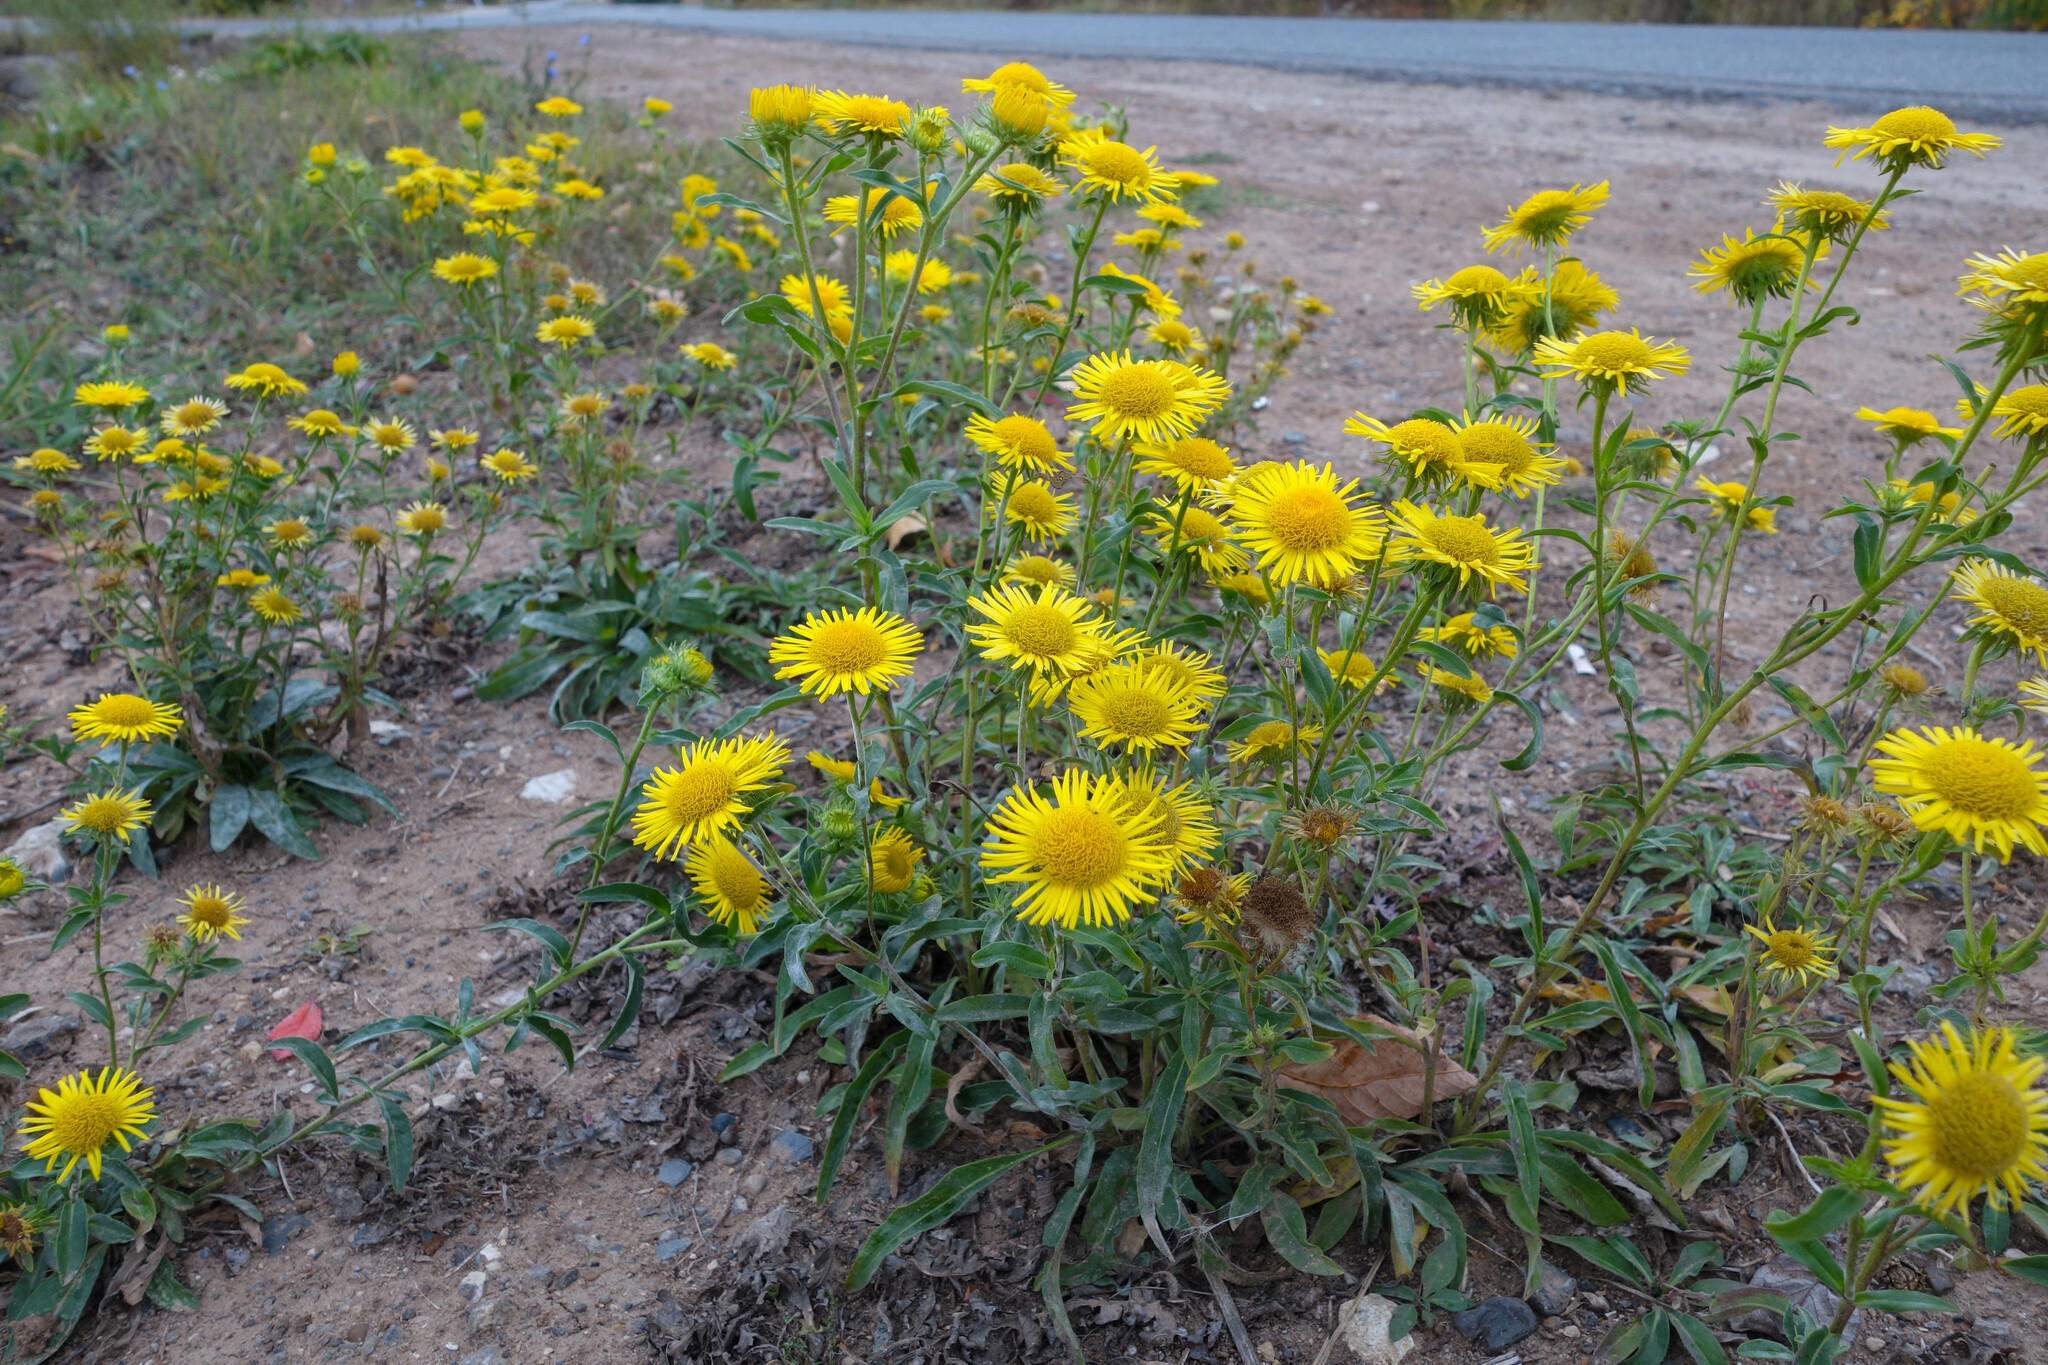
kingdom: Plantae
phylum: Tracheophyta
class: Magnoliopsida
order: Asterales
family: Asteraceae
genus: Pentanema
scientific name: Pentanema britannicum
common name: British elecampane
